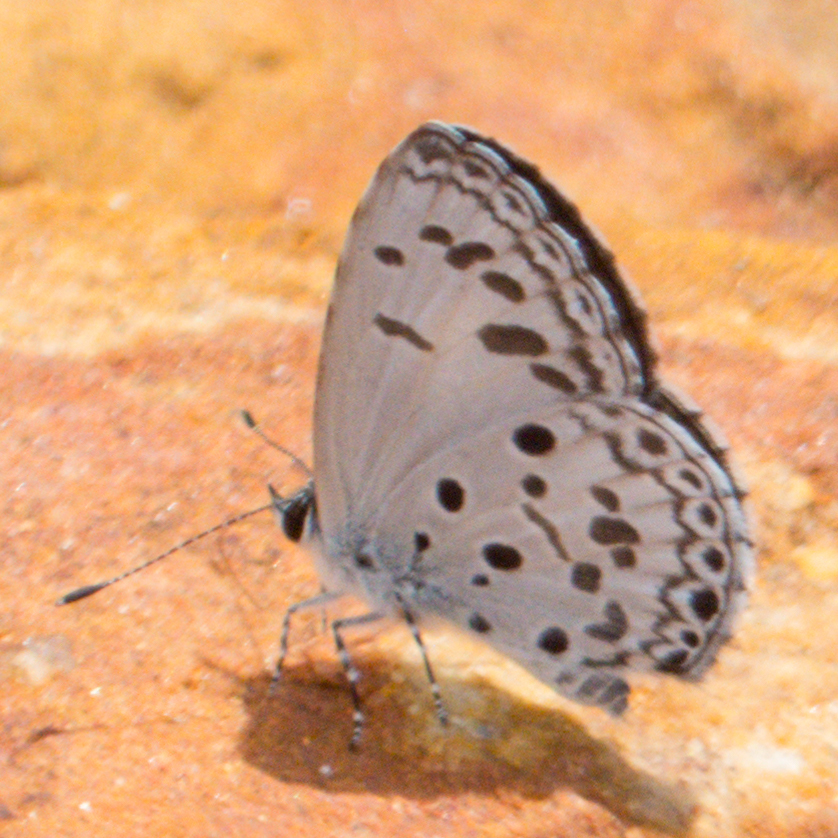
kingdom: Animalia
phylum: Arthropoda
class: Insecta
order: Lepidoptera
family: Lycaenidae
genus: Acytolepis
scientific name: Acytolepis puspa
